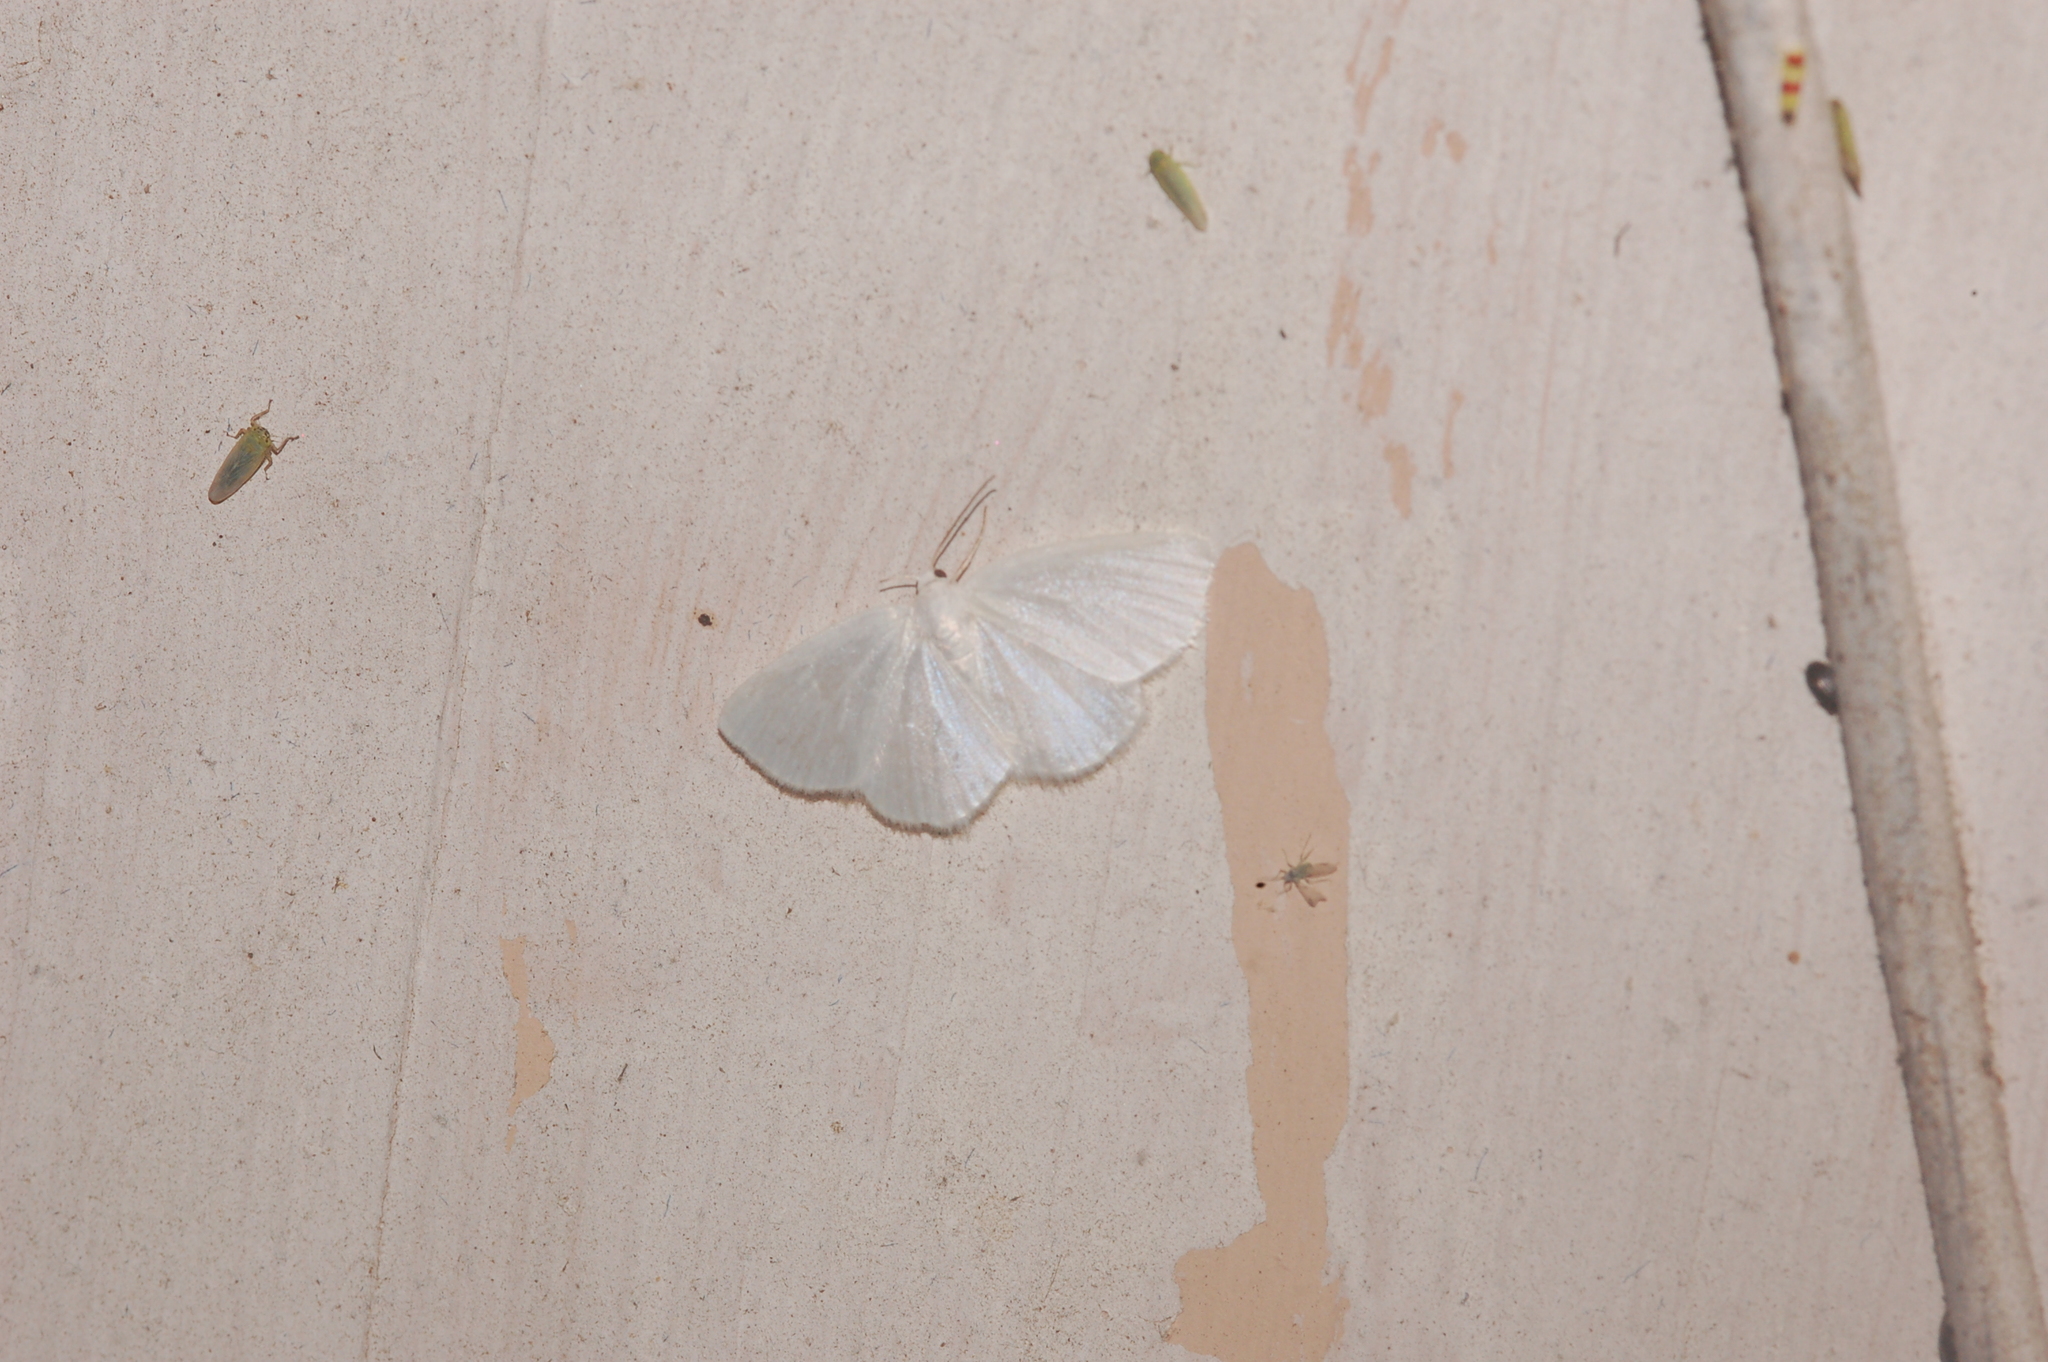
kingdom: Animalia
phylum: Arthropoda
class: Insecta
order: Lepidoptera
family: Geometridae
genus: Lomographa
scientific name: Lomographa vestaliata
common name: White spring moth
